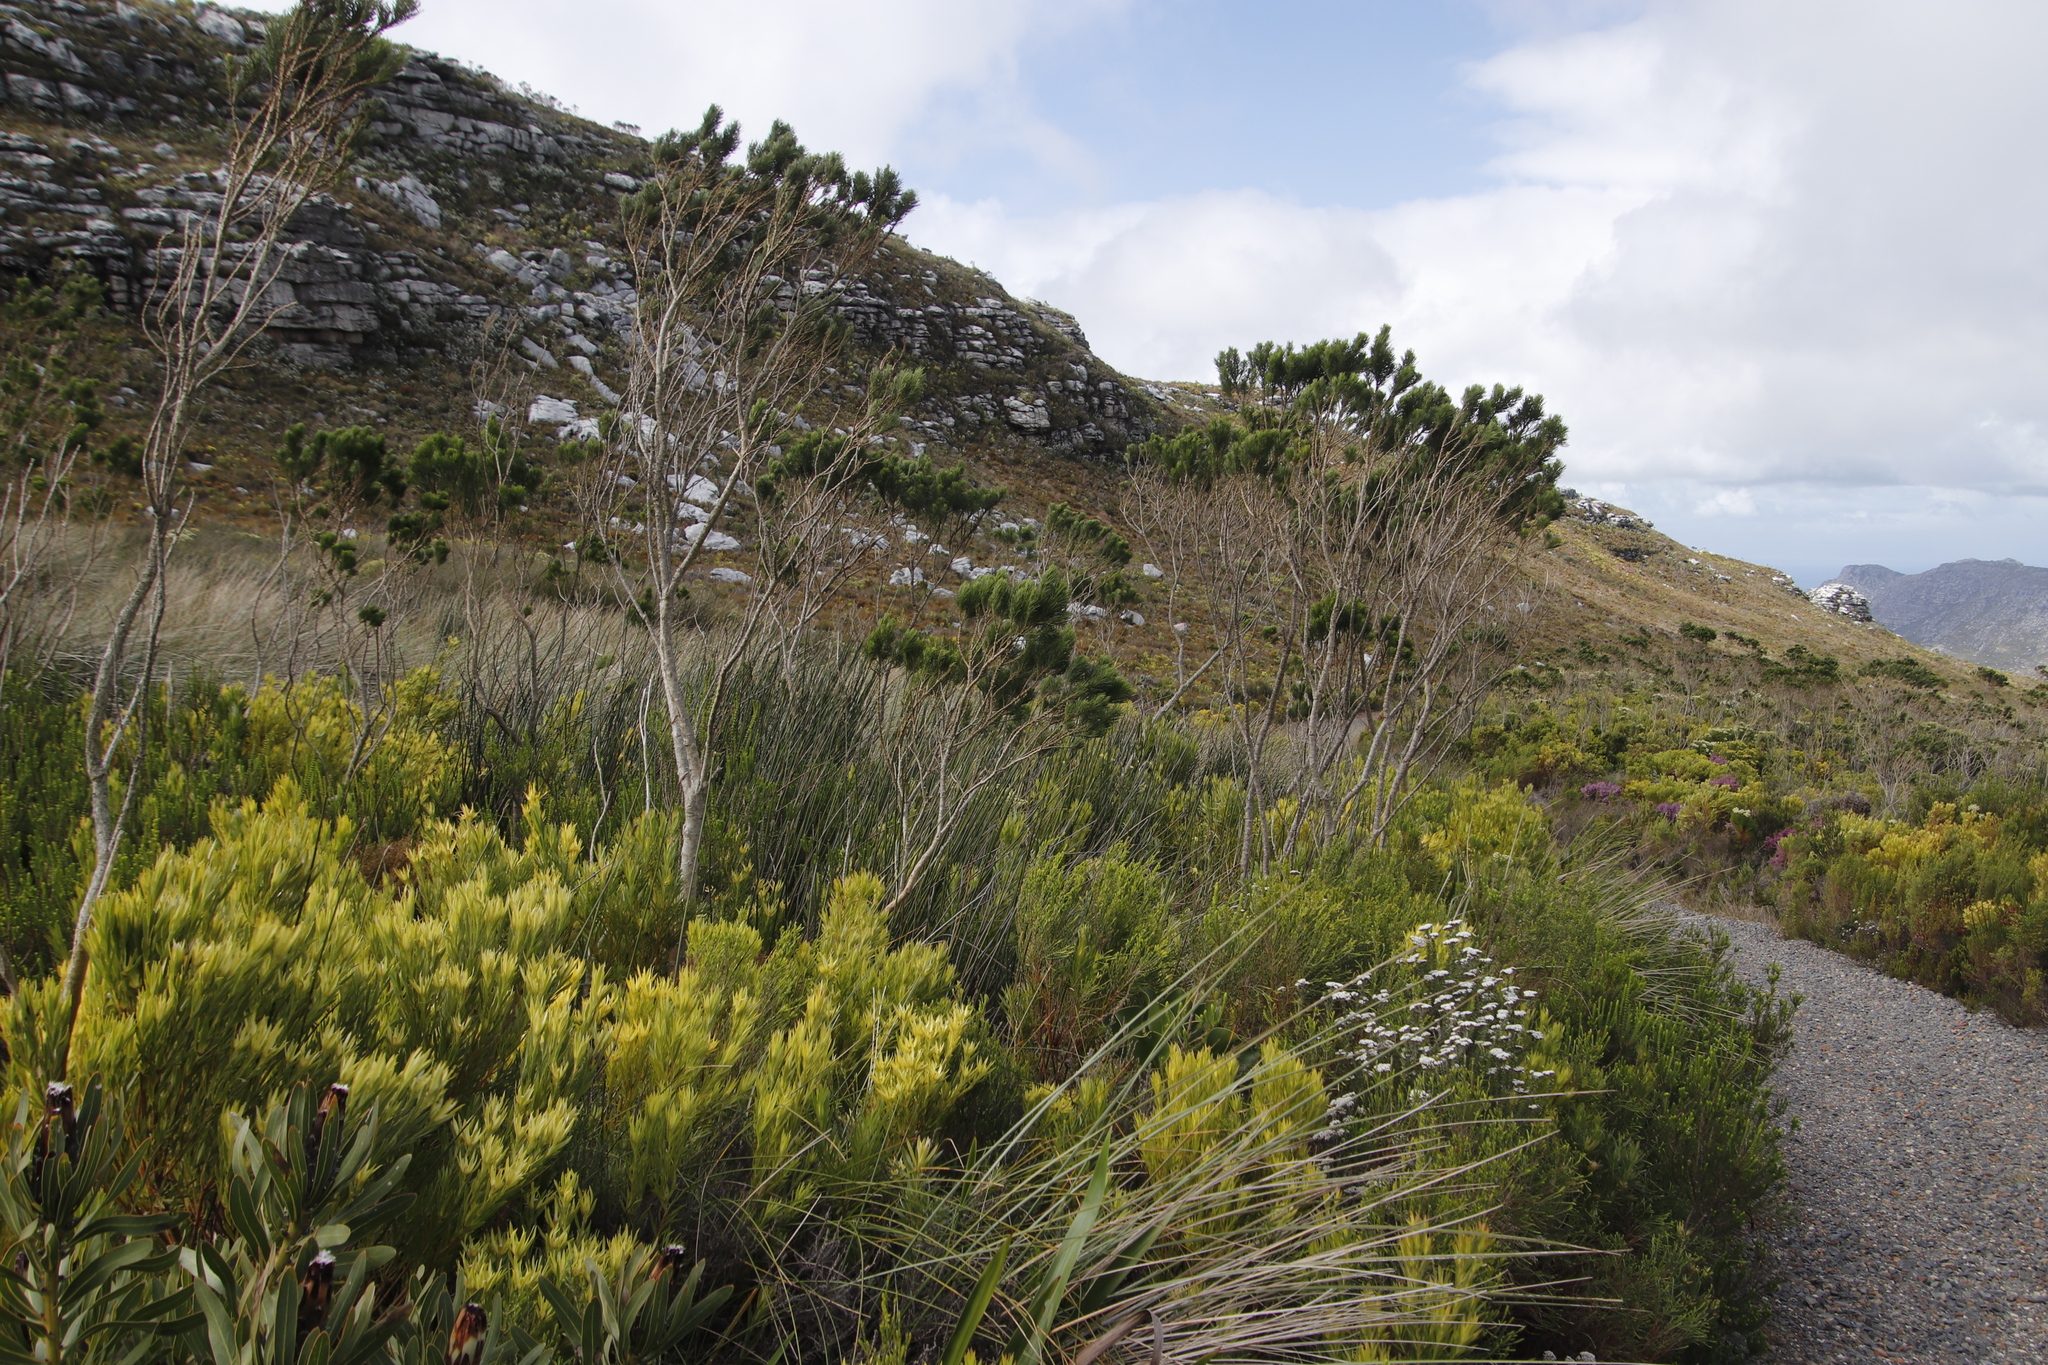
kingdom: Plantae
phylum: Tracheophyta
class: Magnoliopsida
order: Fabales
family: Fabaceae
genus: Psoralea
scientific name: Psoralea pinnata
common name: African scurfpea
